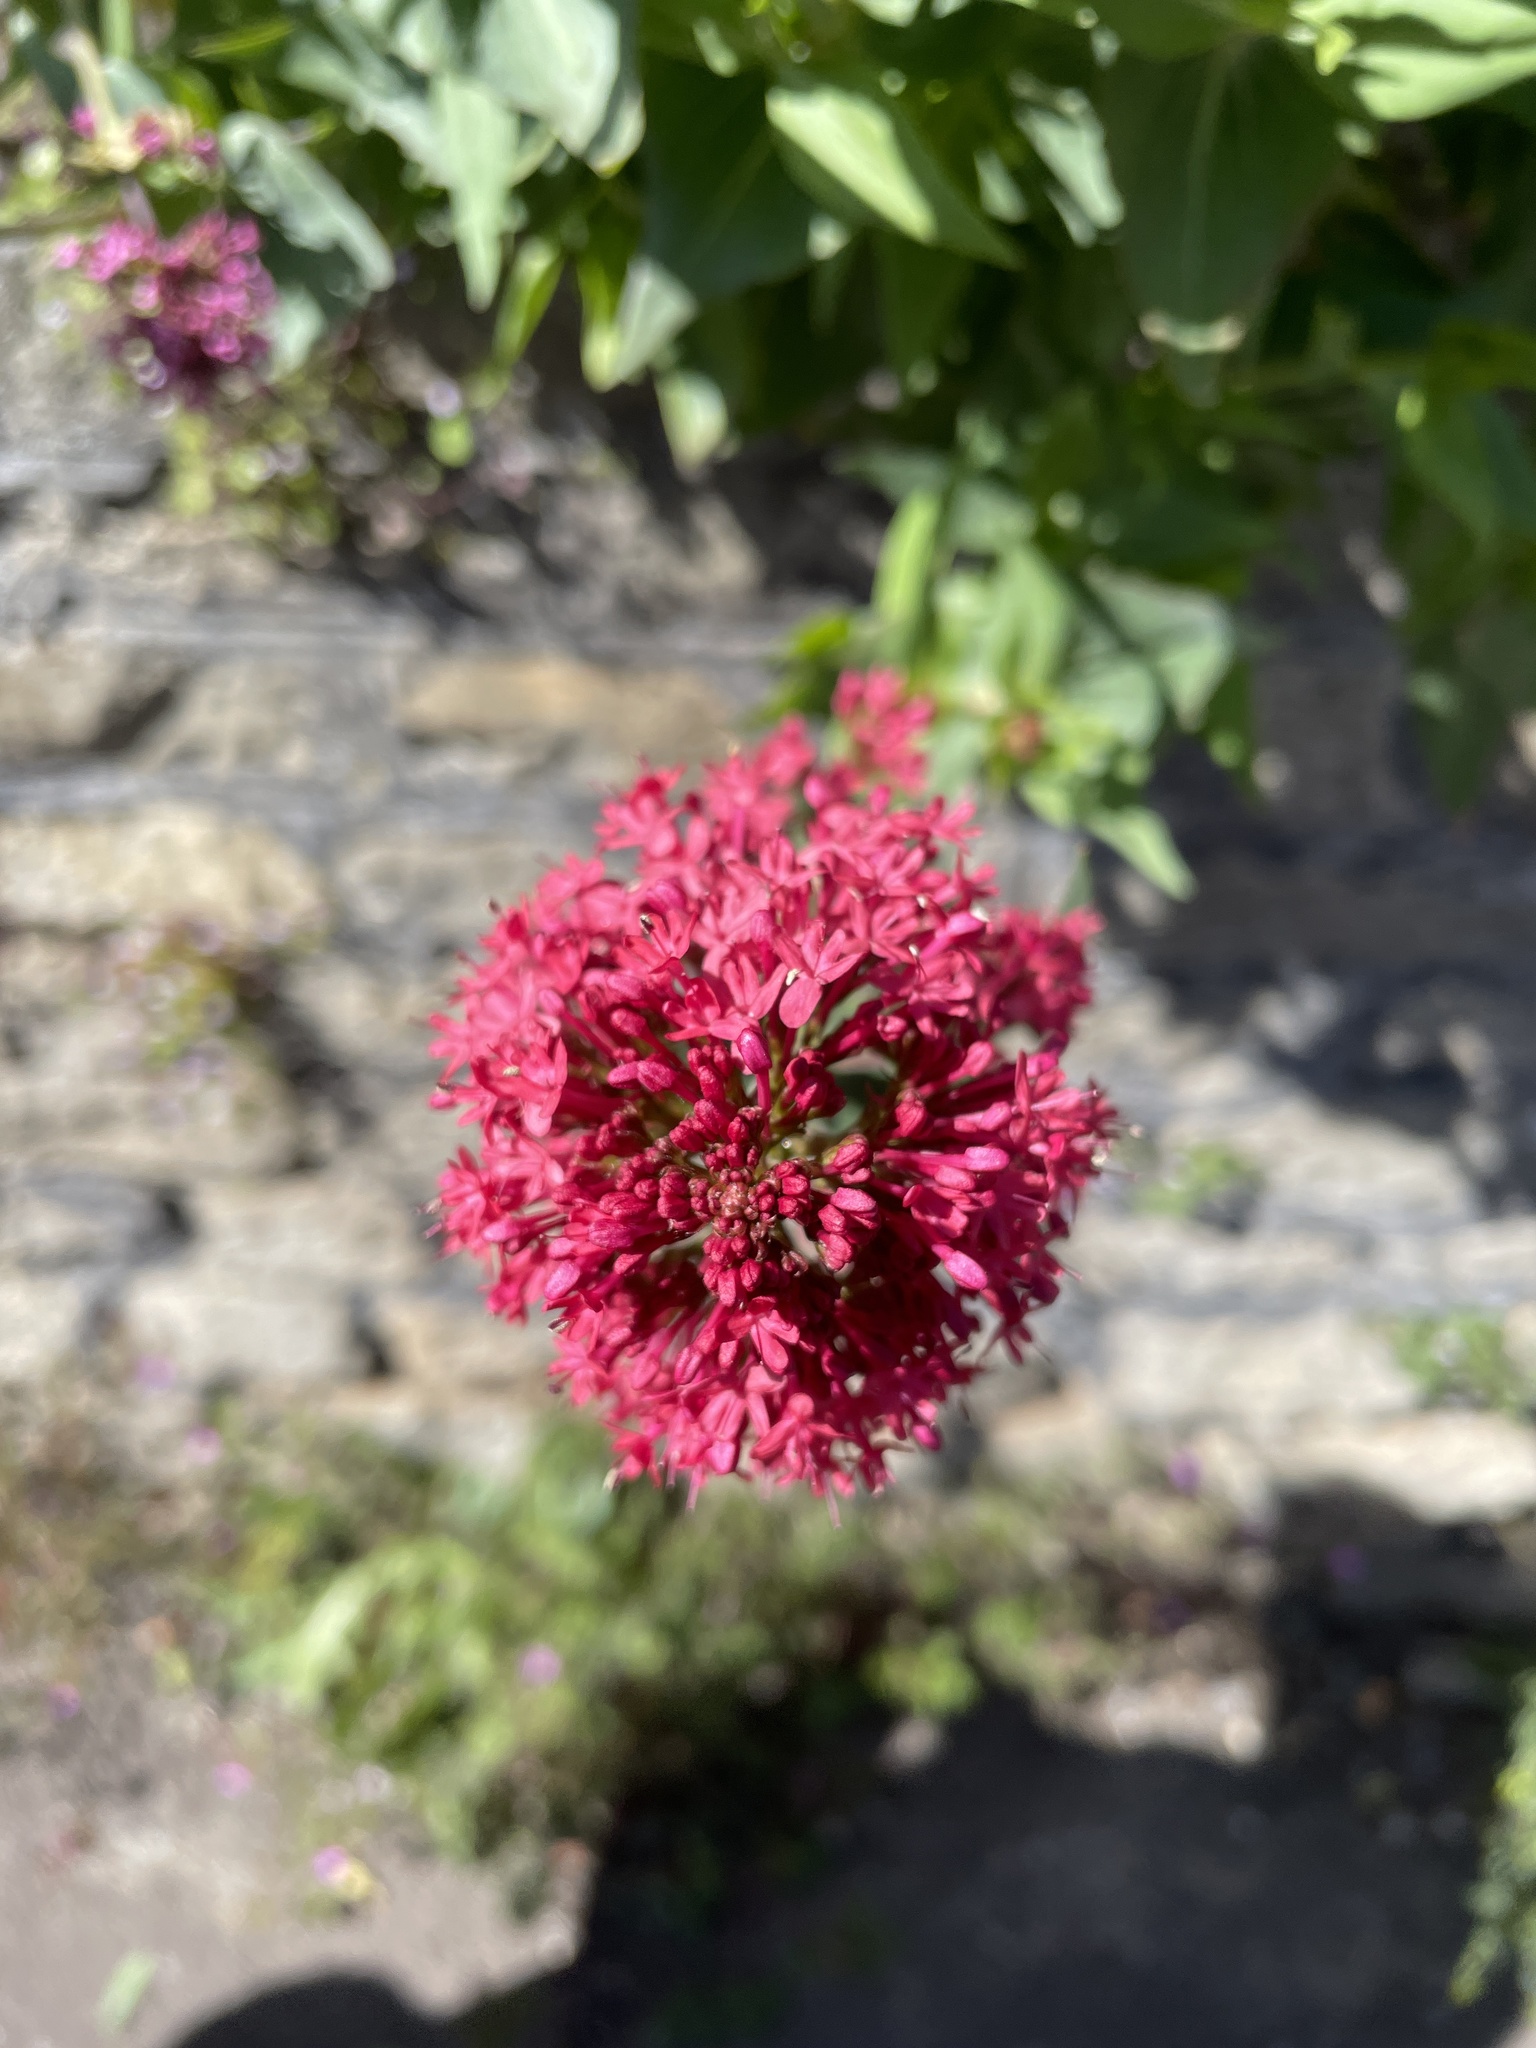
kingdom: Plantae
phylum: Tracheophyta
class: Magnoliopsida
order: Dipsacales
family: Caprifoliaceae
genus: Centranthus
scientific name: Centranthus ruber
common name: Red valerian
